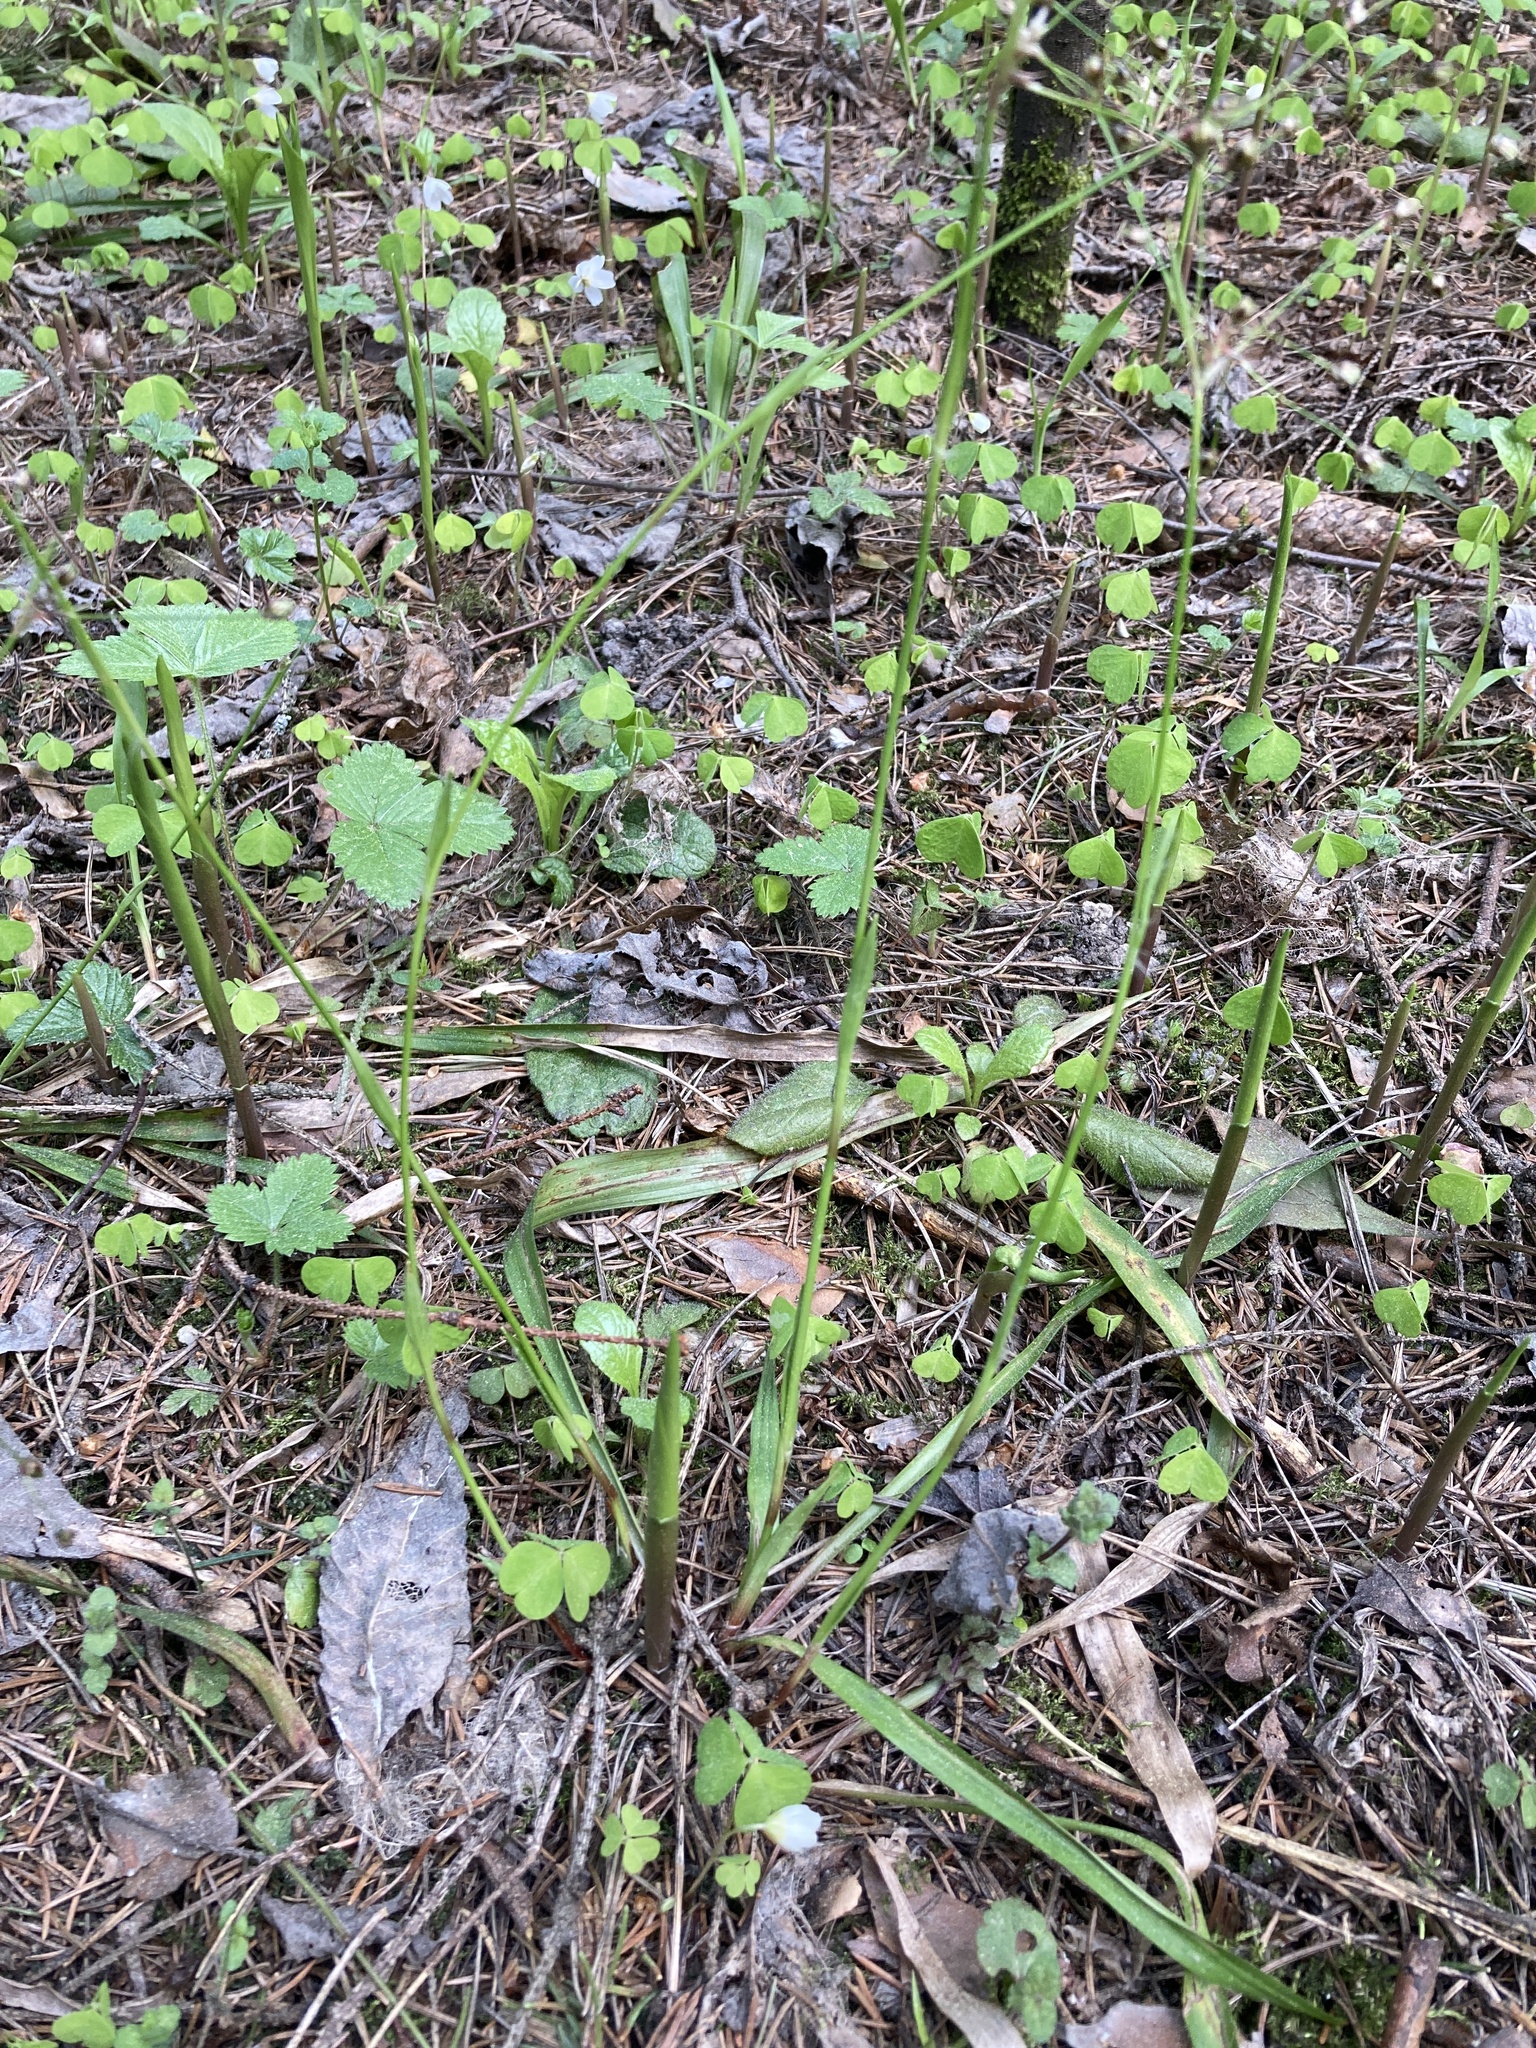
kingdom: Plantae
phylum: Tracheophyta
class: Liliopsida
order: Poales
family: Juncaceae
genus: Luzula
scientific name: Luzula pilosa
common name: Hairy wood-rush
